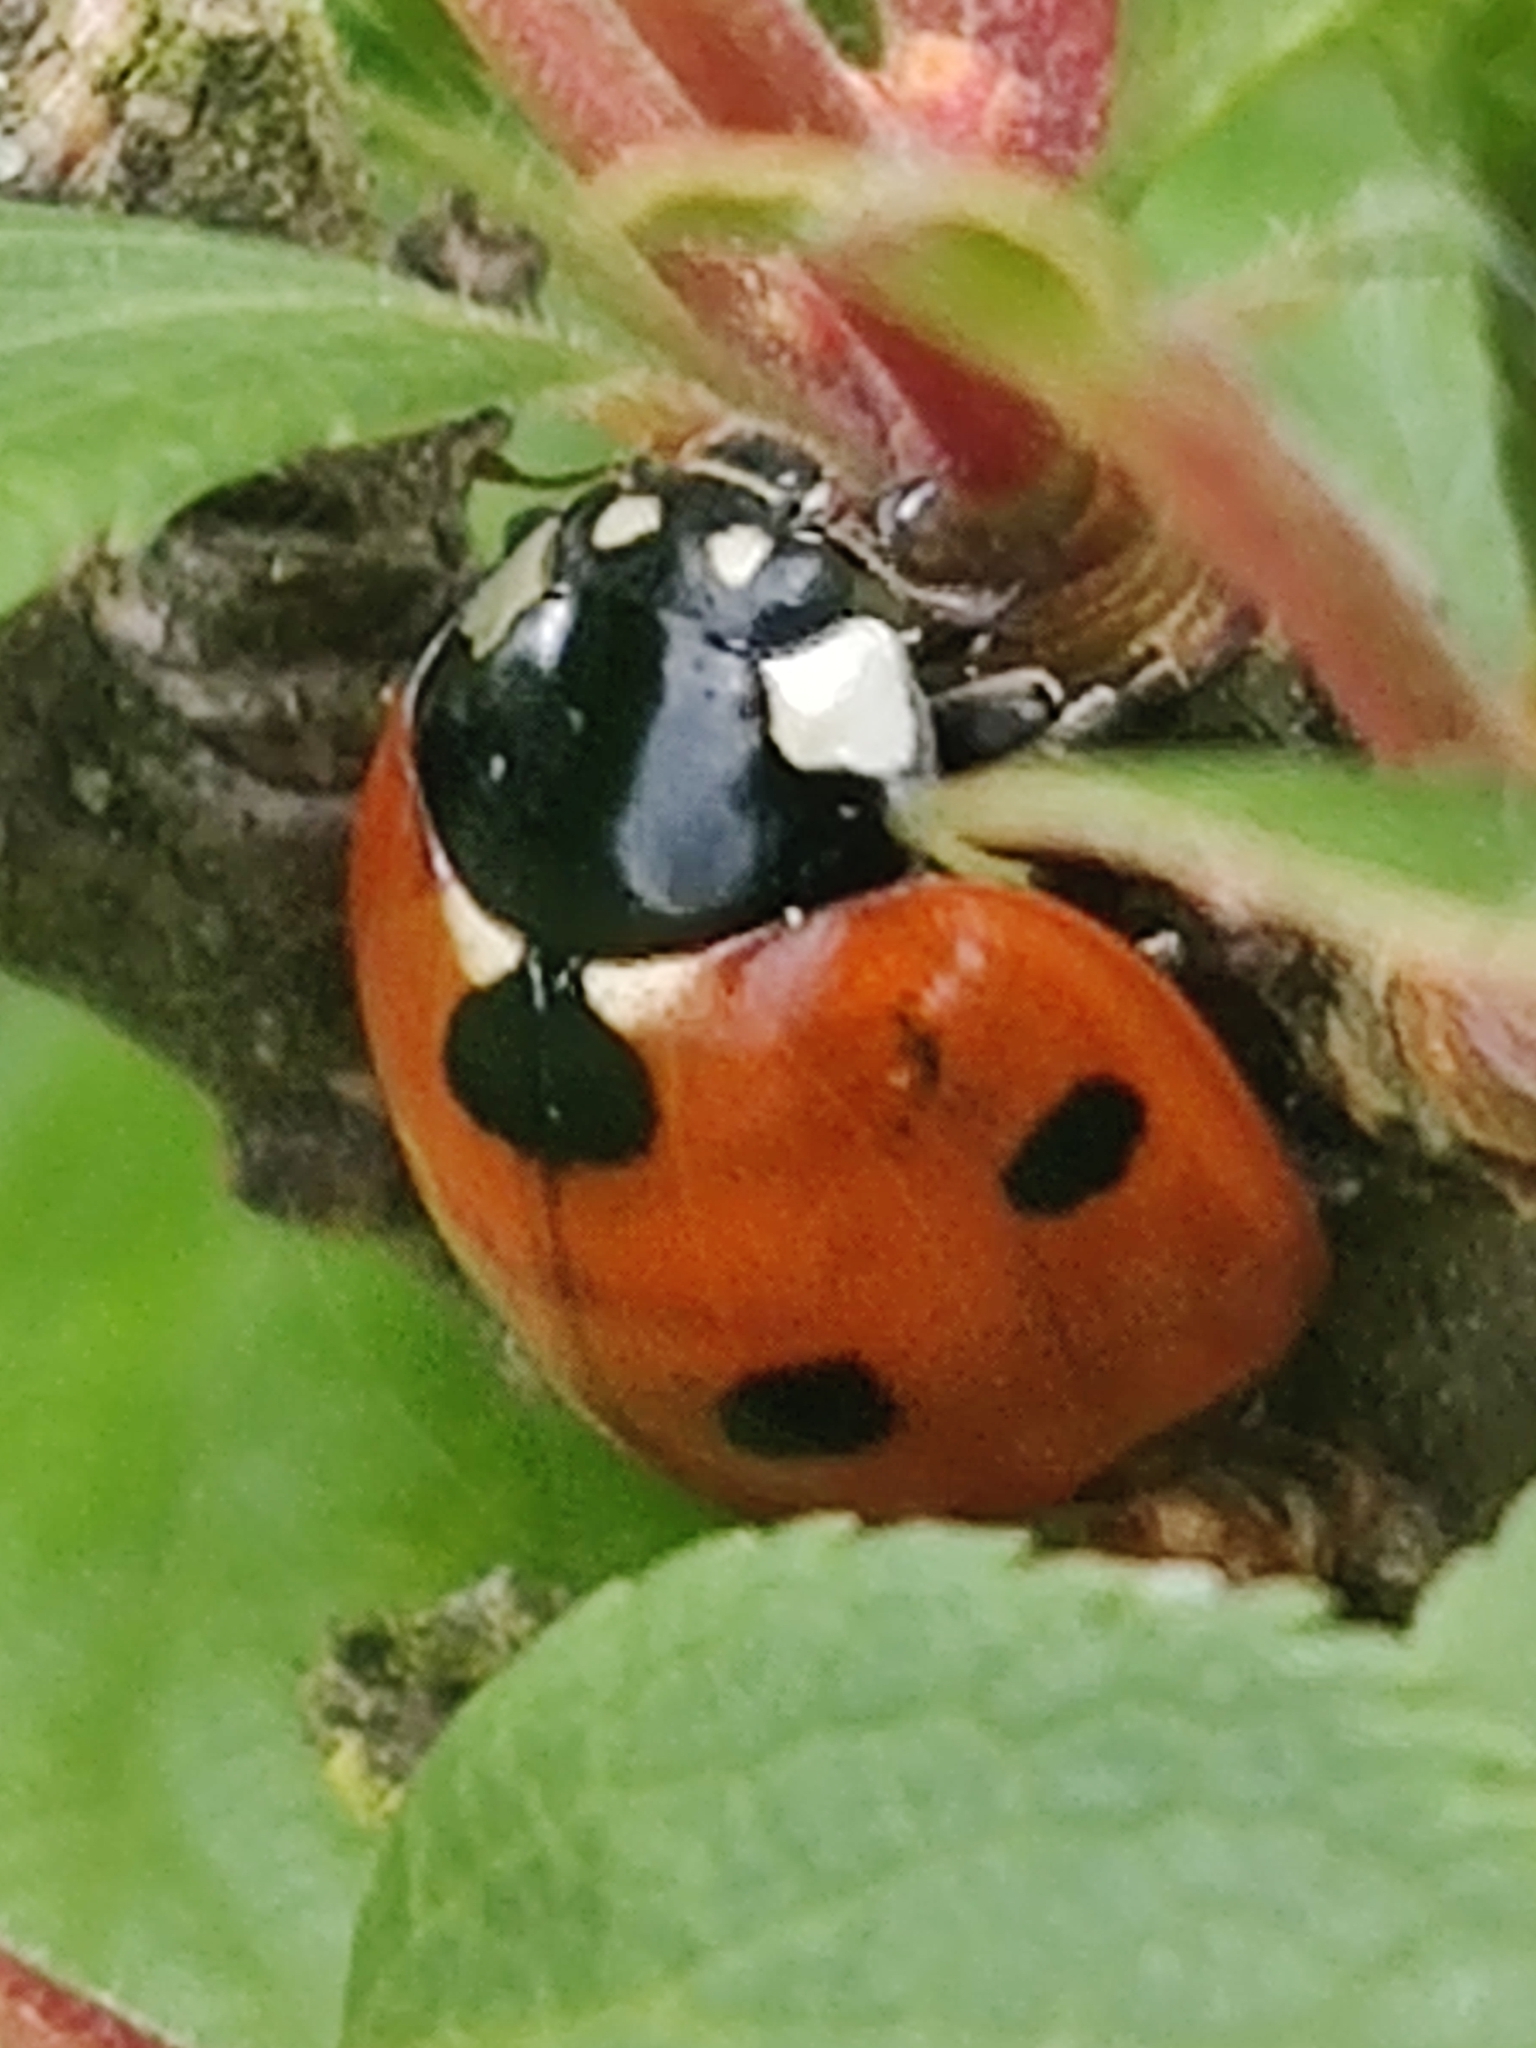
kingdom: Animalia
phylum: Arthropoda
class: Insecta
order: Coleoptera
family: Coccinellidae
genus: Coccinella
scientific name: Coccinella septempunctata
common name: Sevenspotted lady beetle
